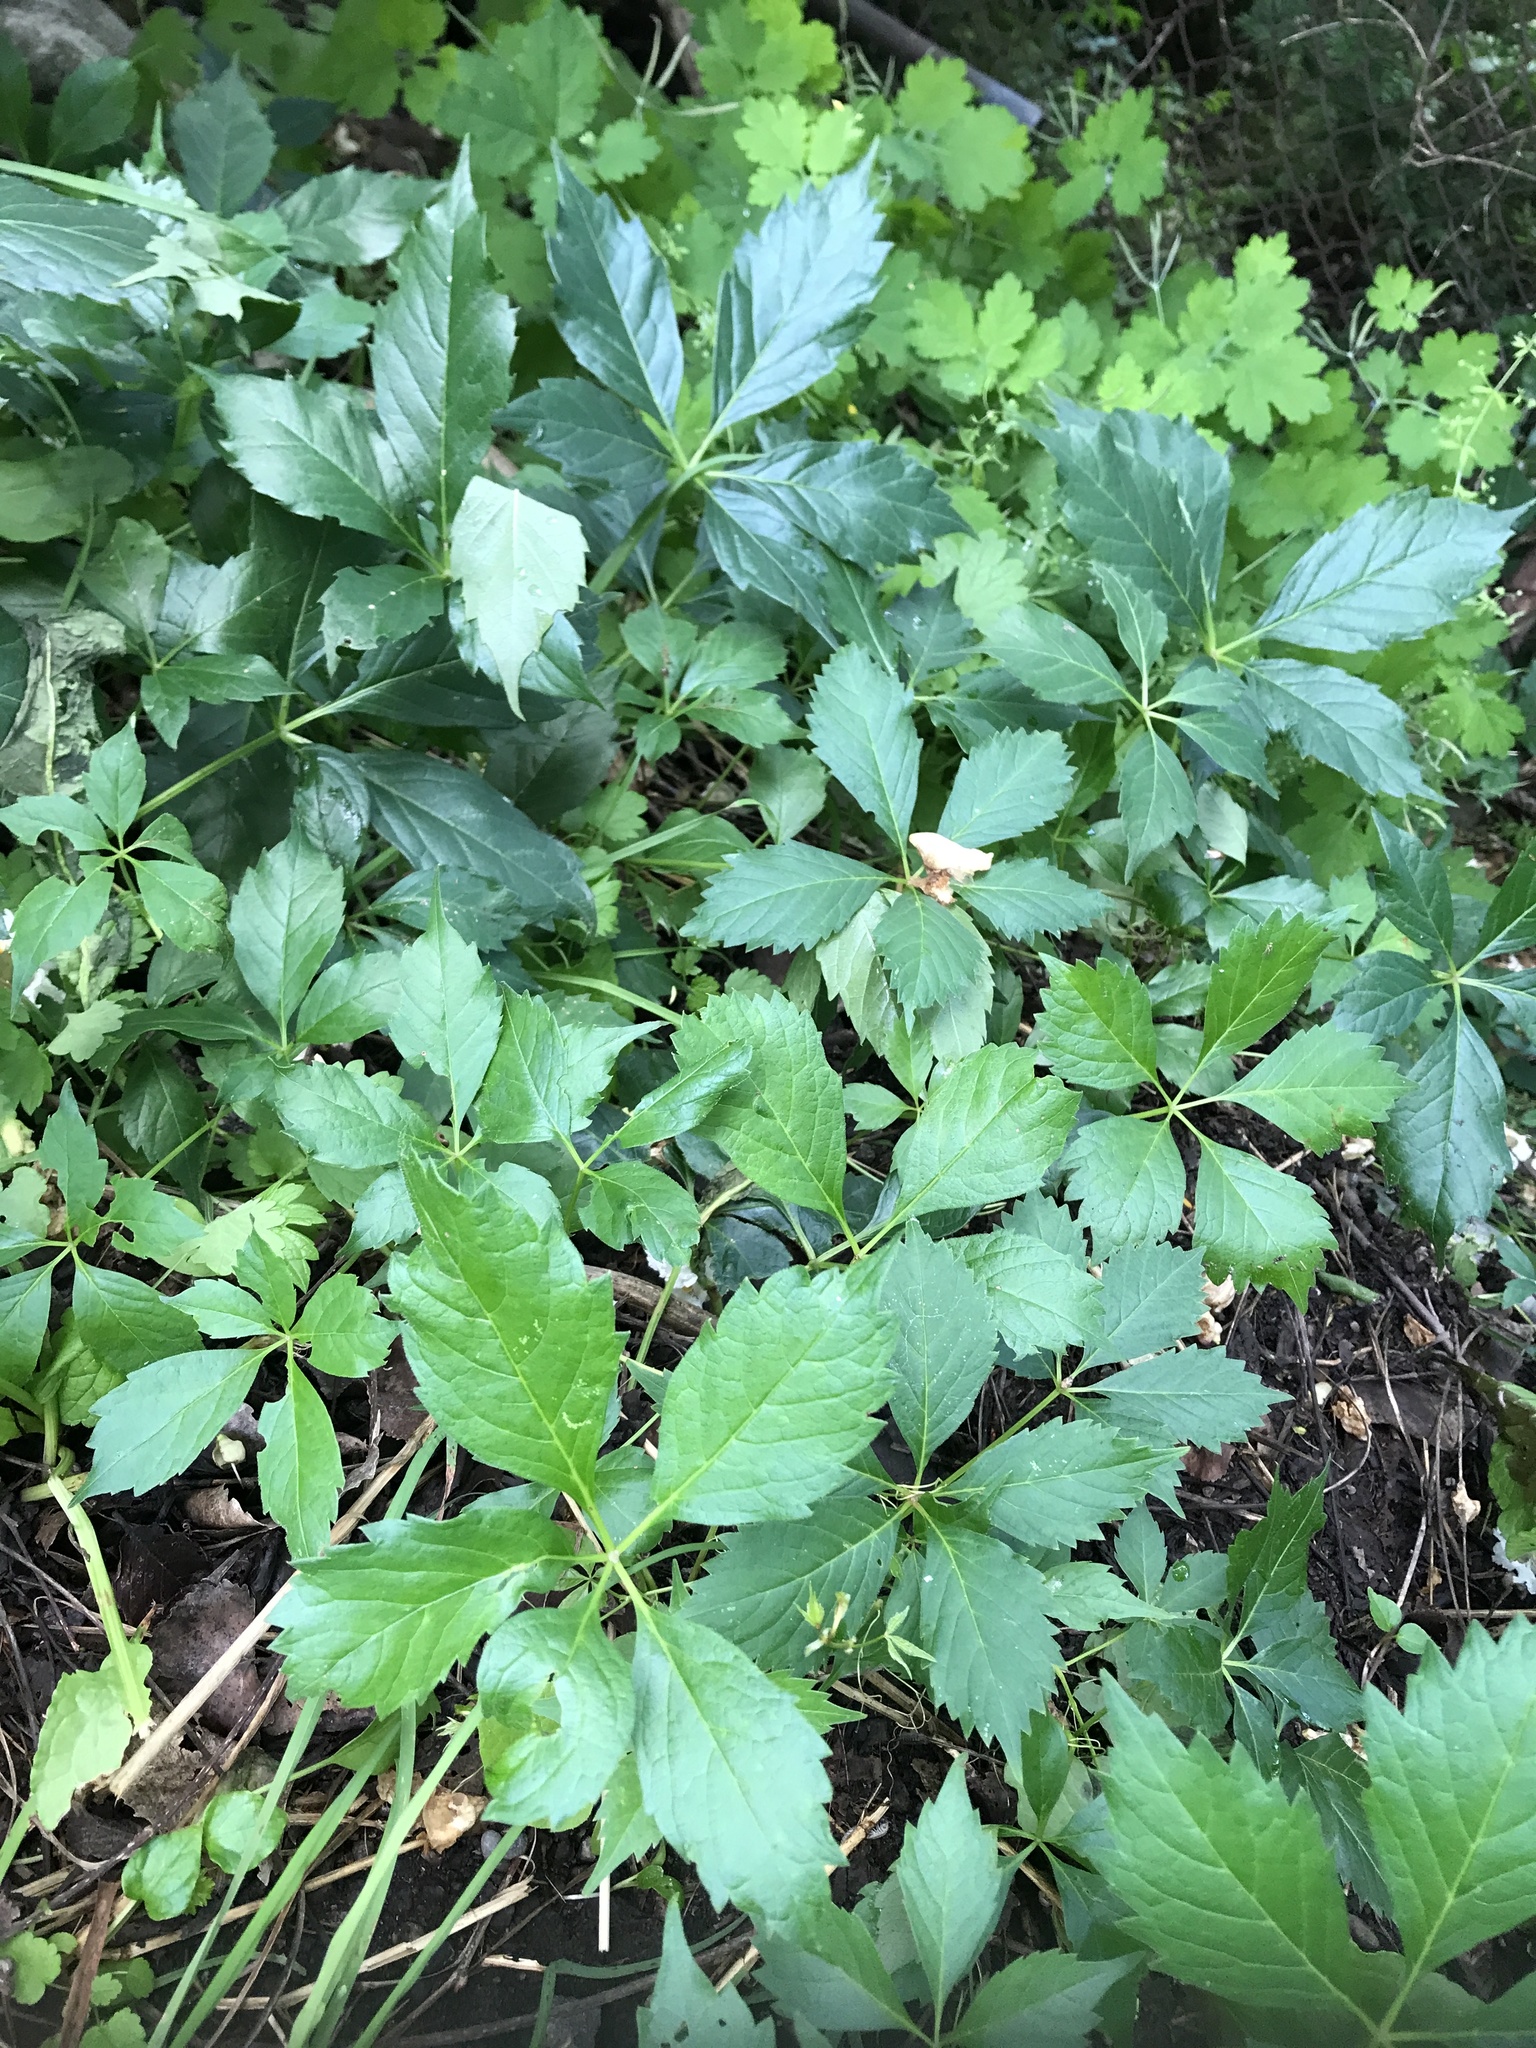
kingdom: Plantae
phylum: Tracheophyta
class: Magnoliopsida
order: Vitales
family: Vitaceae
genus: Parthenocissus
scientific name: Parthenocissus quinquefolia
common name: Virginia-creeper
